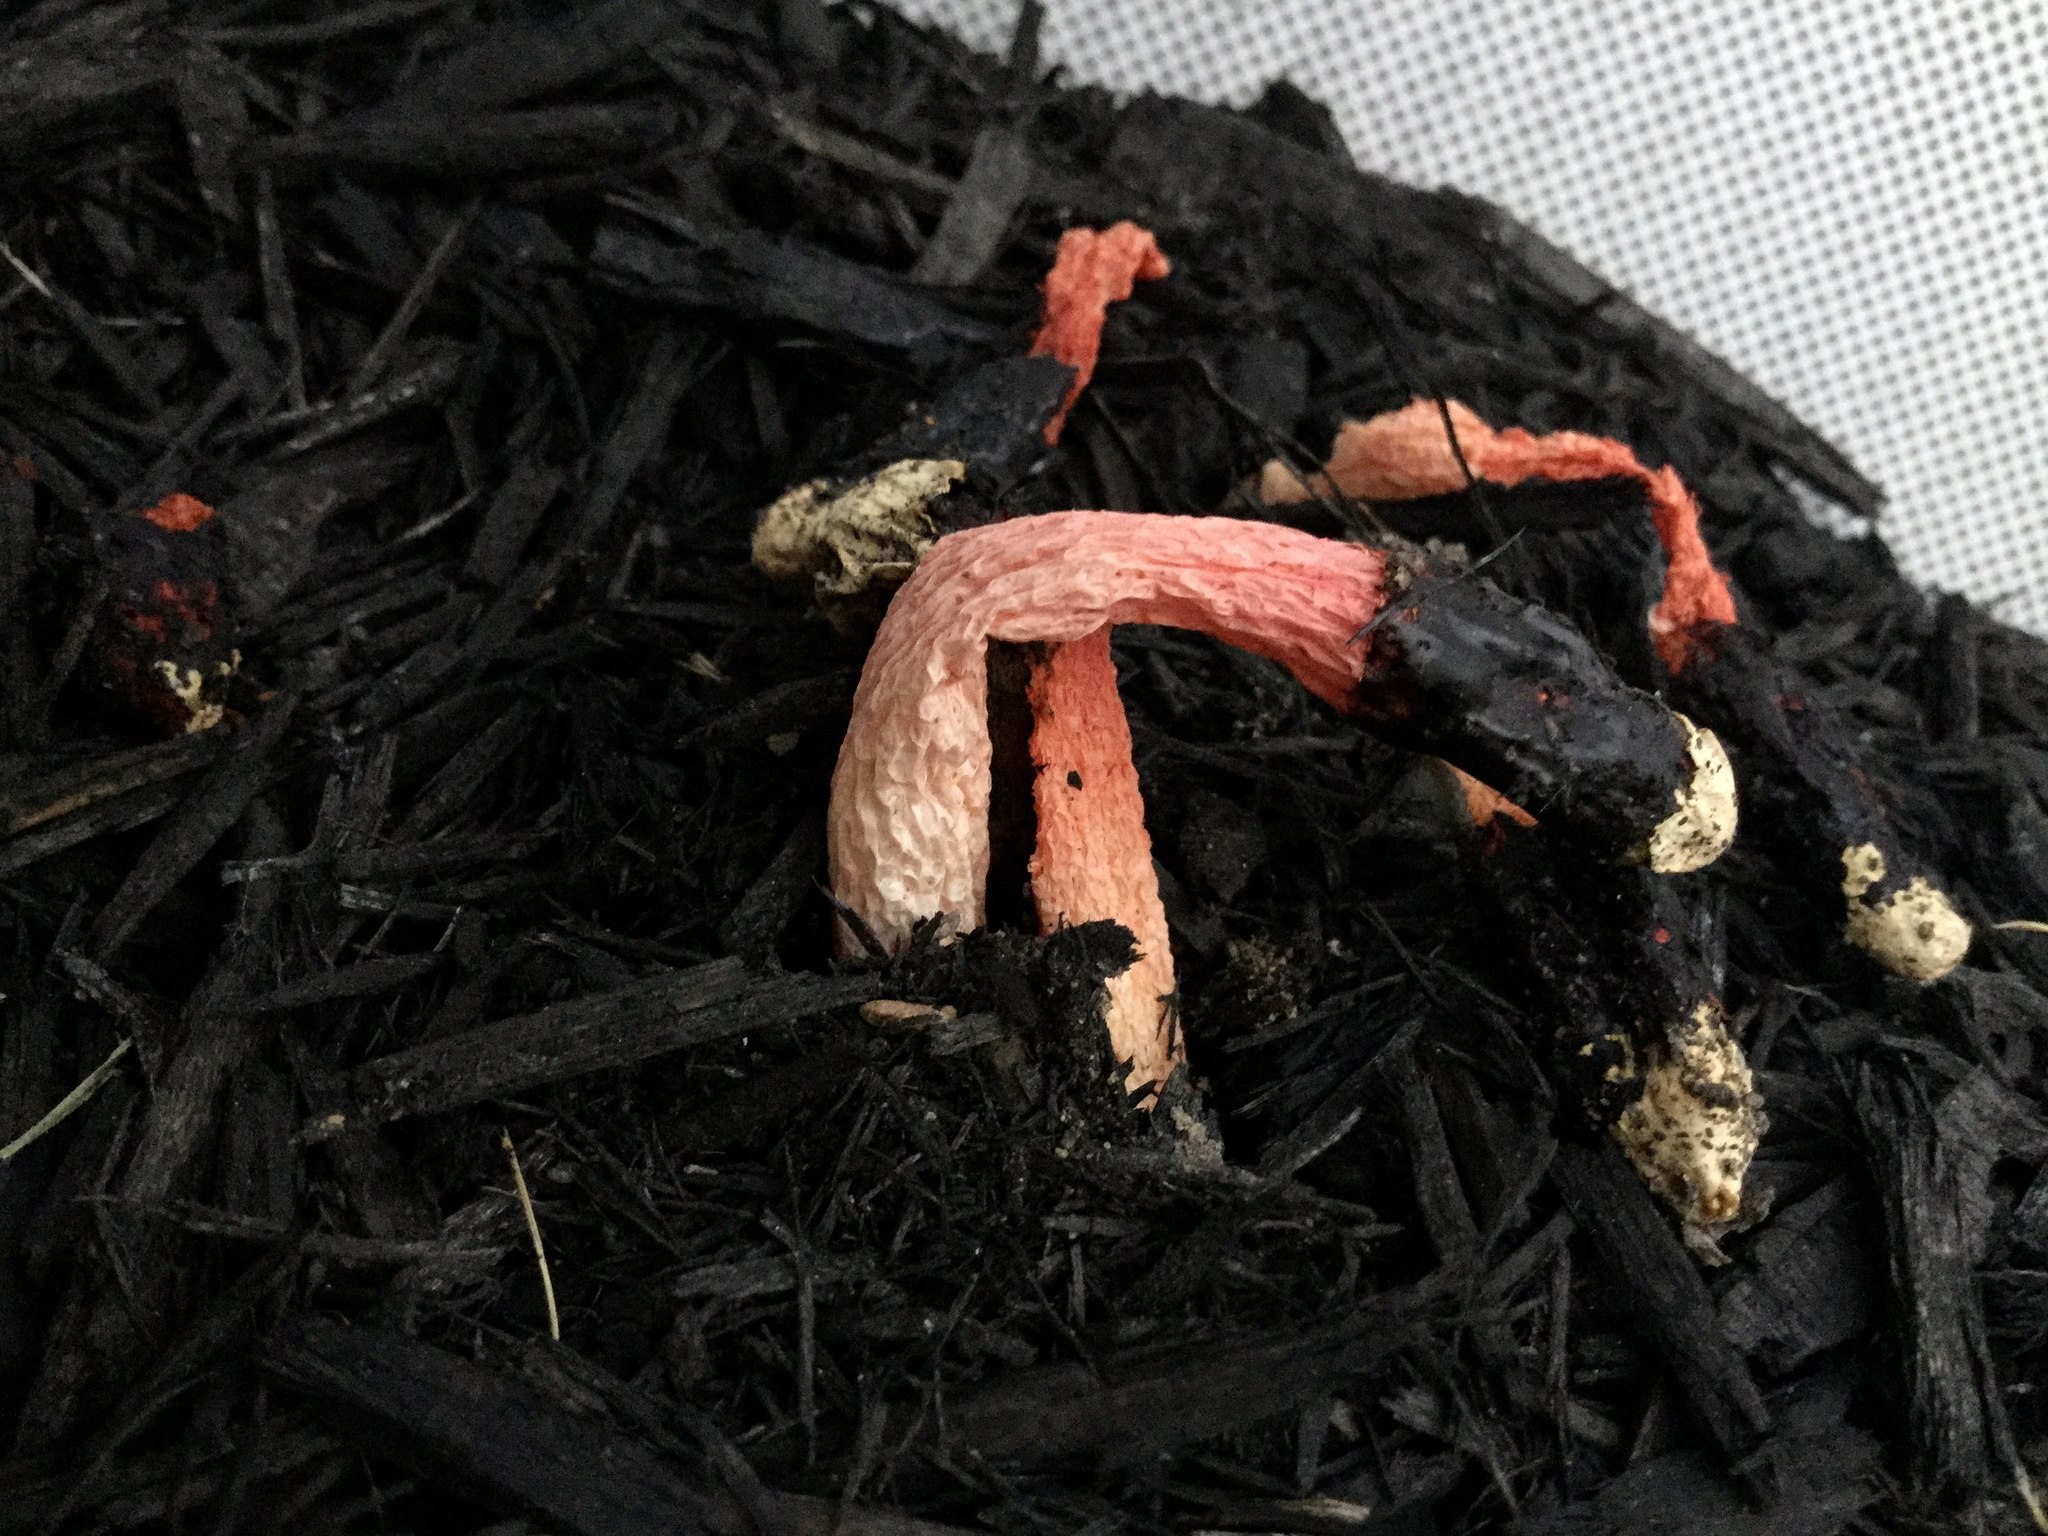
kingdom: Fungi
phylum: Basidiomycota
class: Agaricomycetes
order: Phallales
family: Phallaceae
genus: Phallus
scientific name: Phallus rugulosus
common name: Wrinkly stinkhorn
